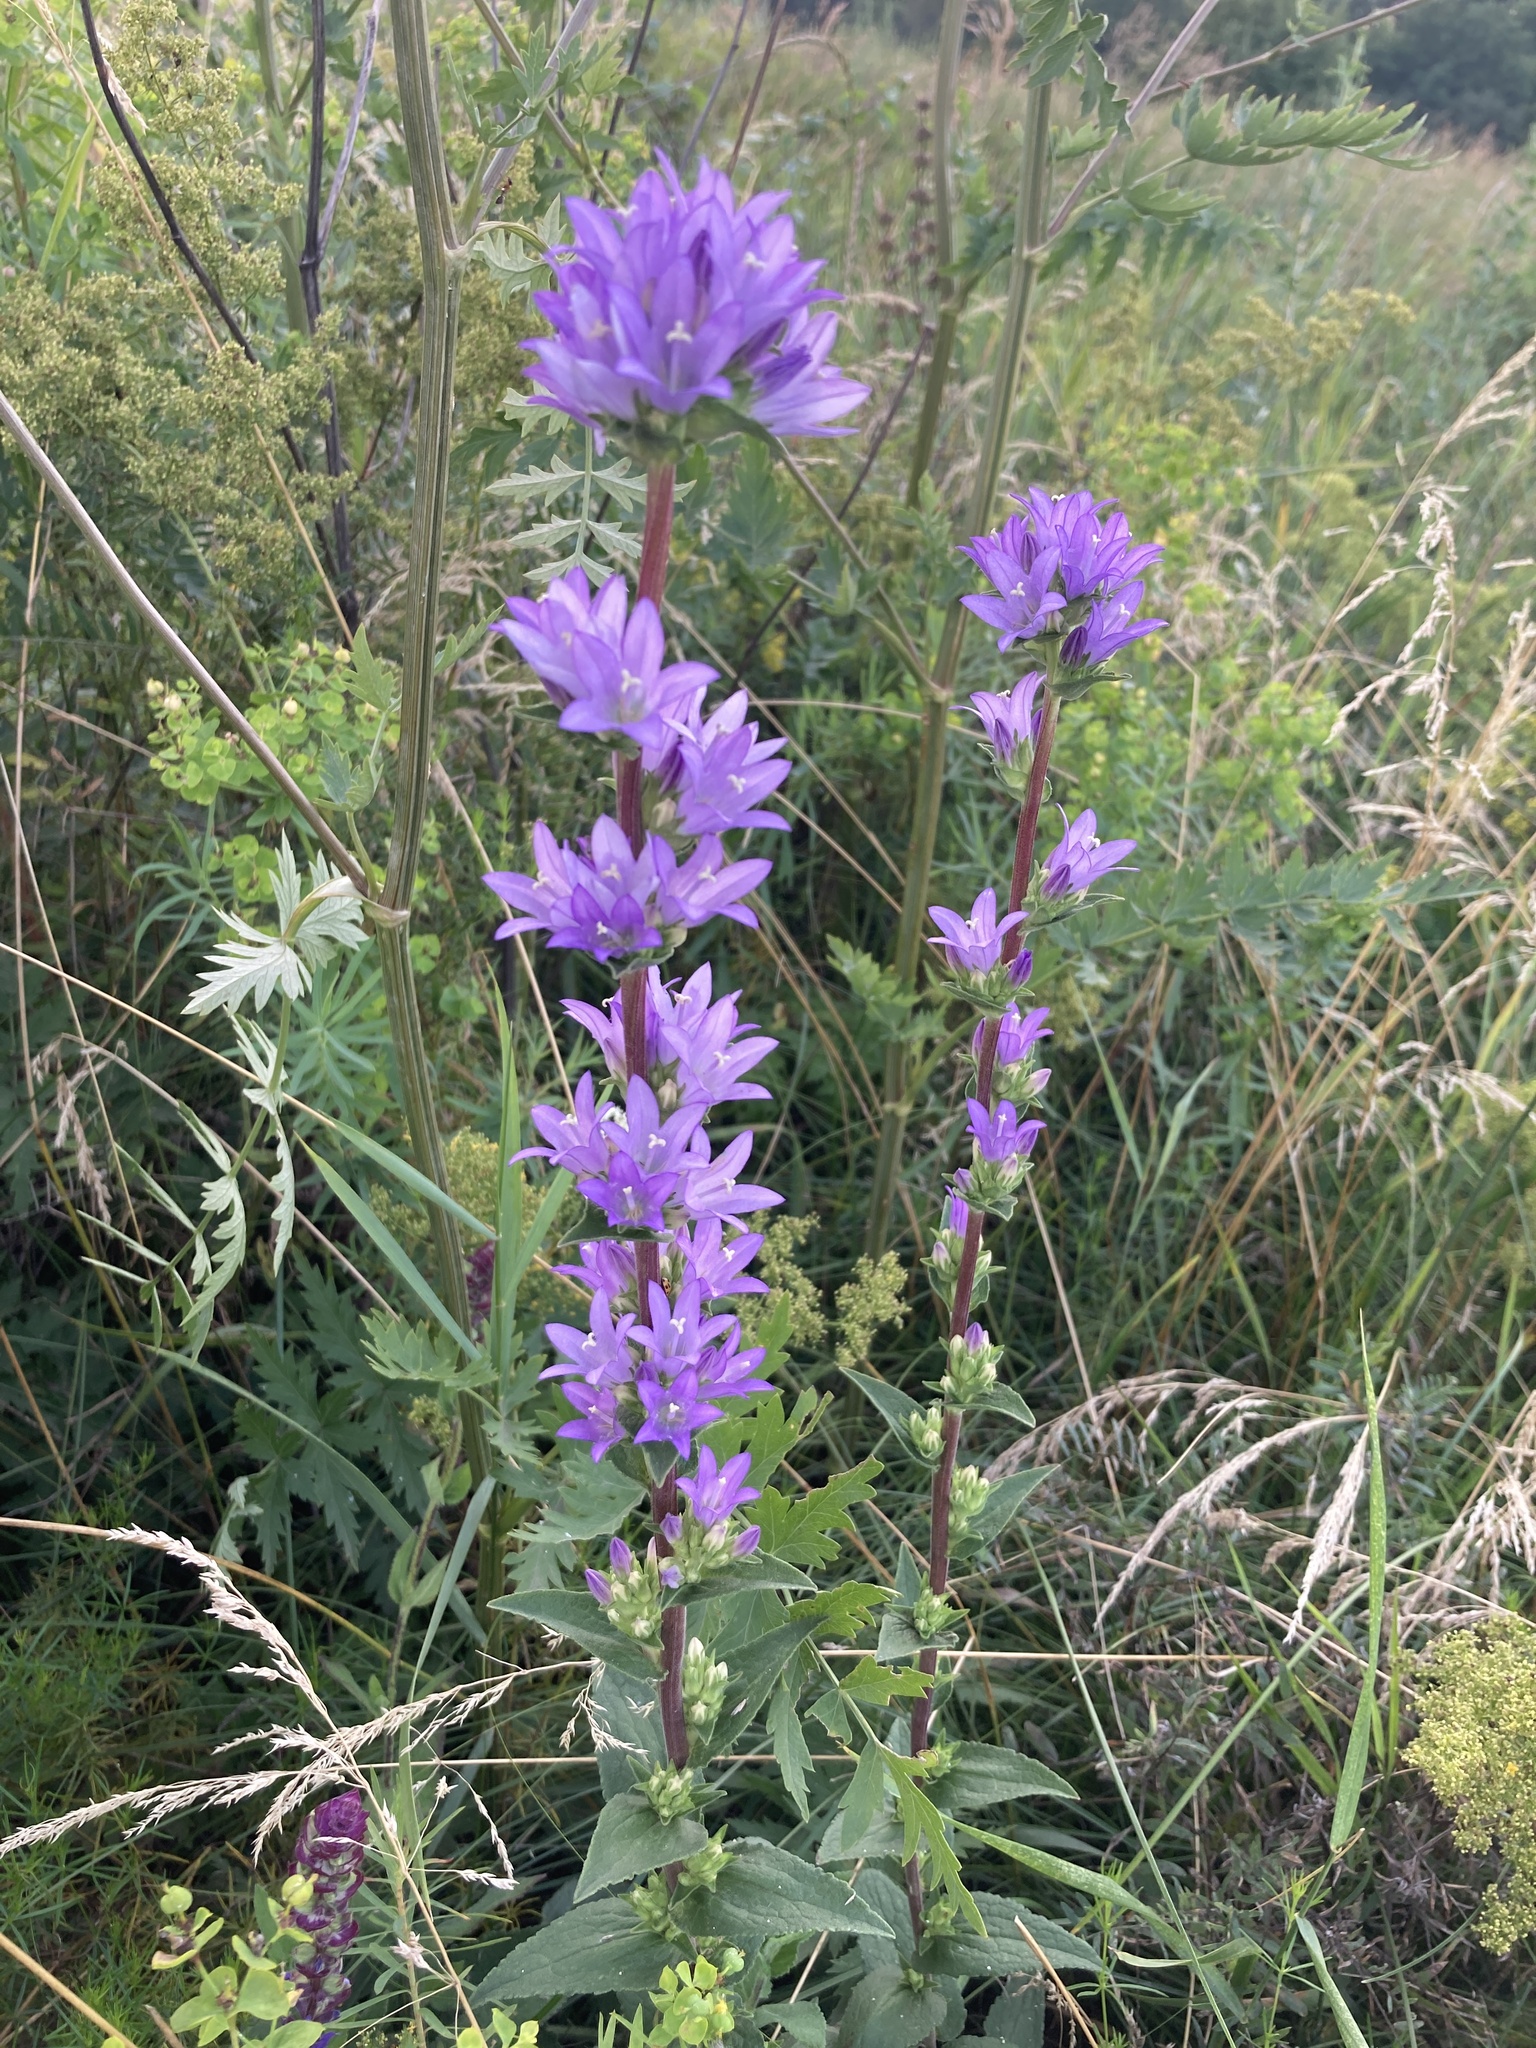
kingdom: Plantae
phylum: Tracheophyta
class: Magnoliopsida
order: Asterales
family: Campanulaceae
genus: Campanula
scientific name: Campanula glomerata
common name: Clustered bellflower
